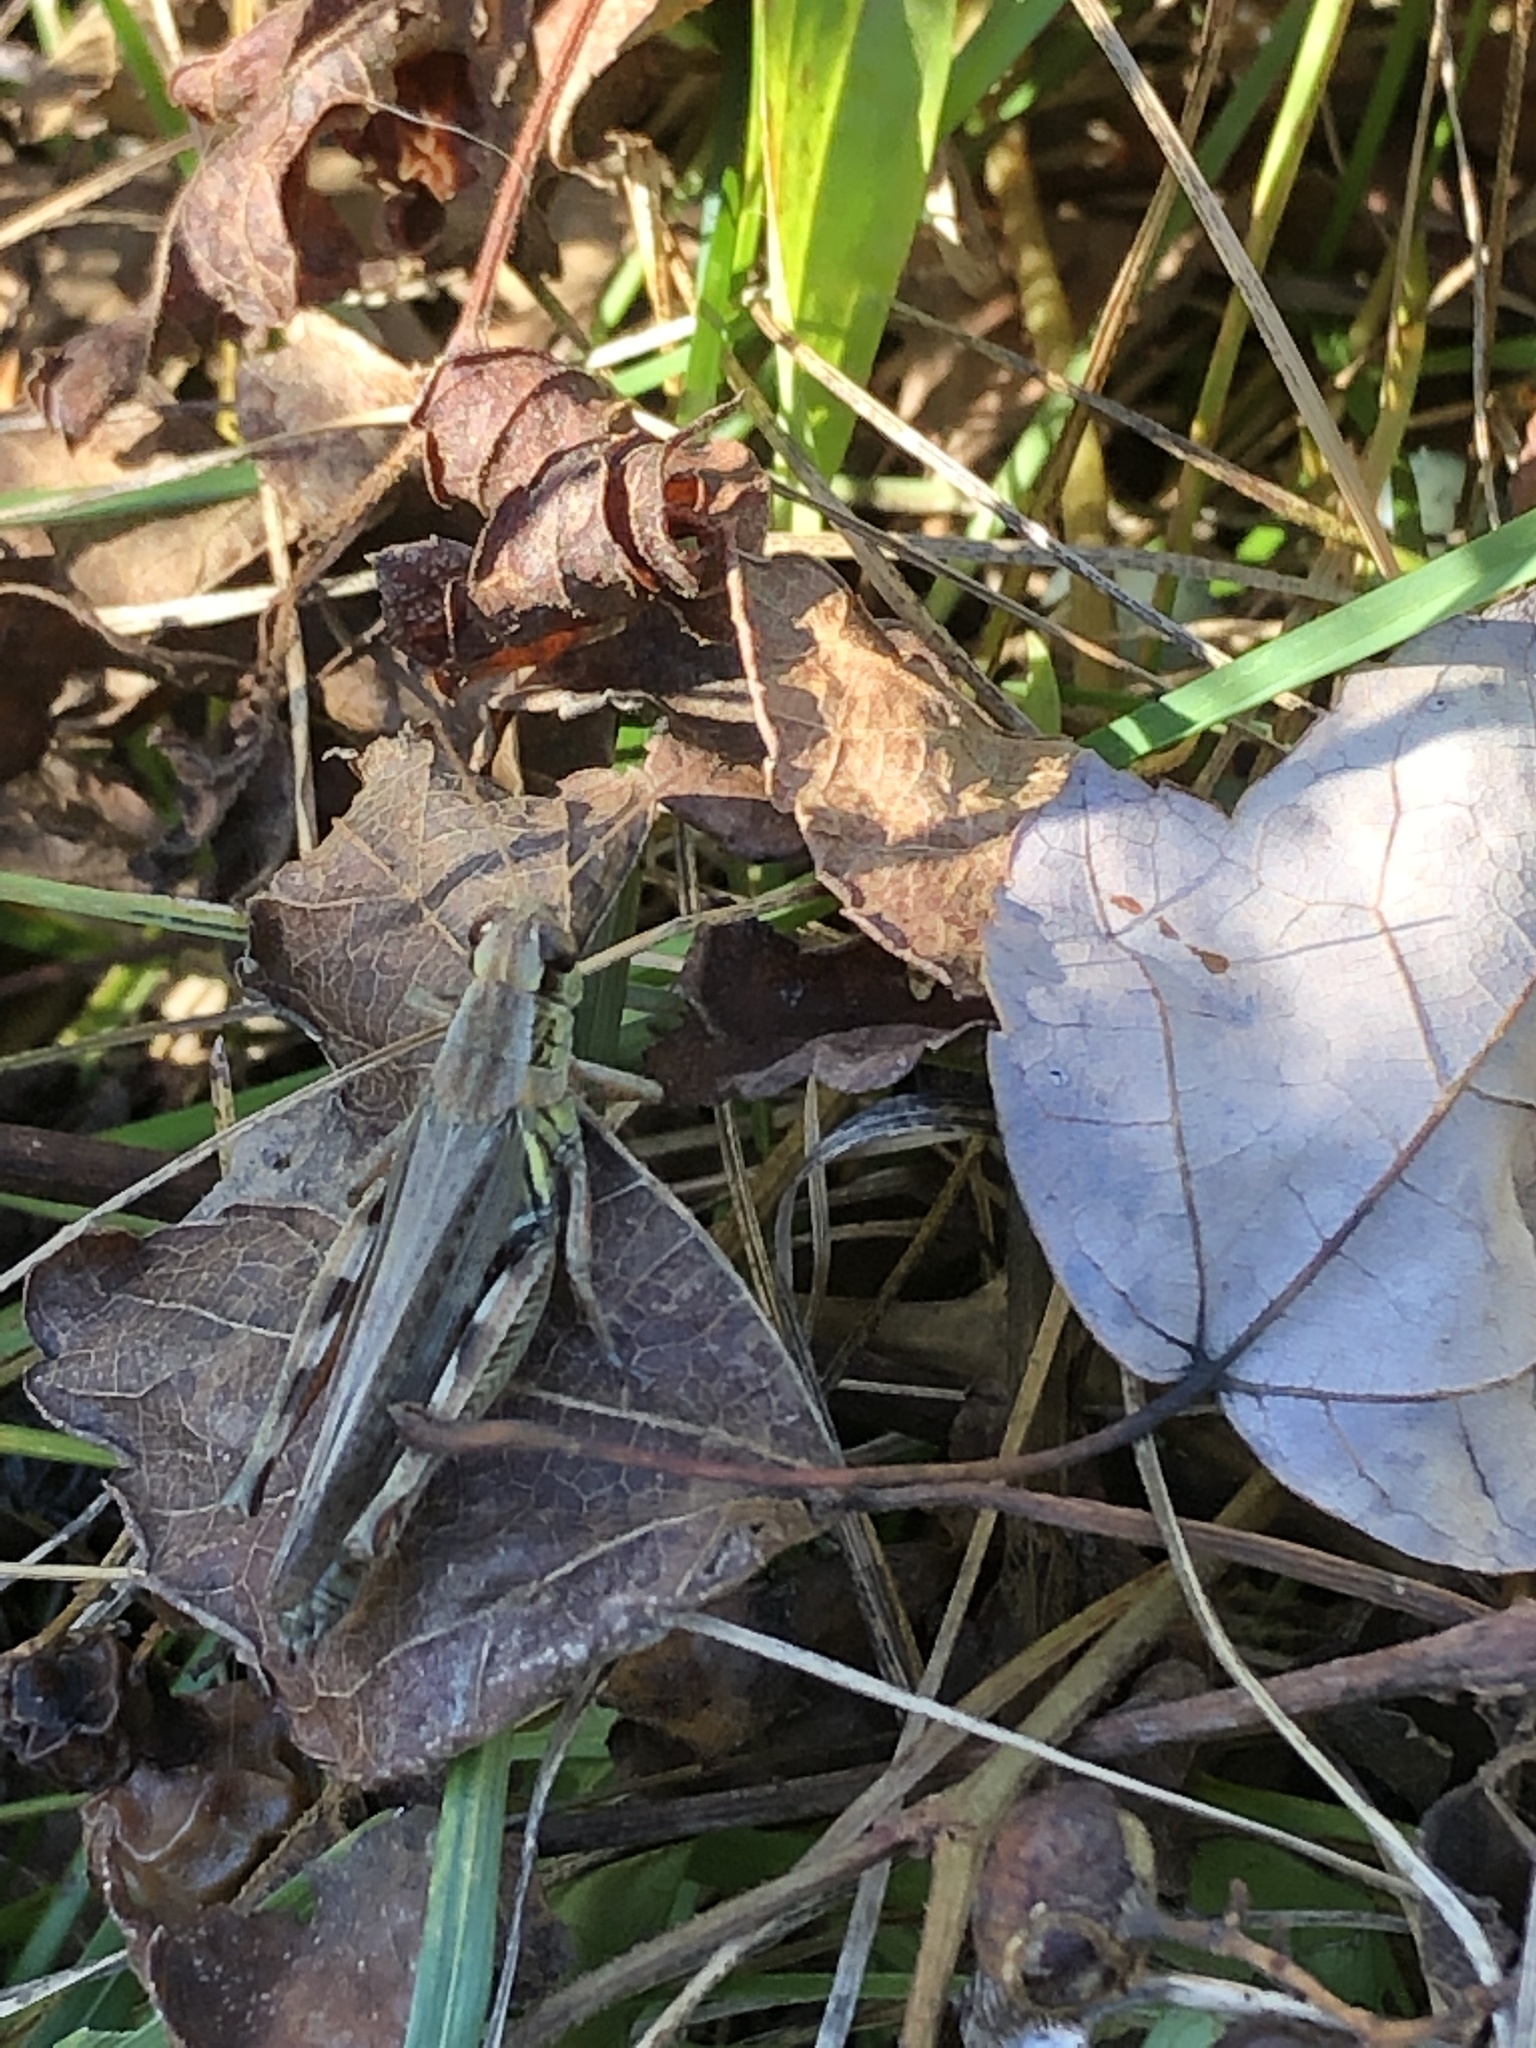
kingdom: Animalia
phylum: Arthropoda
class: Insecta
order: Orthoptera
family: Acrididae
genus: Melanoplus
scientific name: Melanoplus femurrubrum
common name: Red-legged grasshopper
